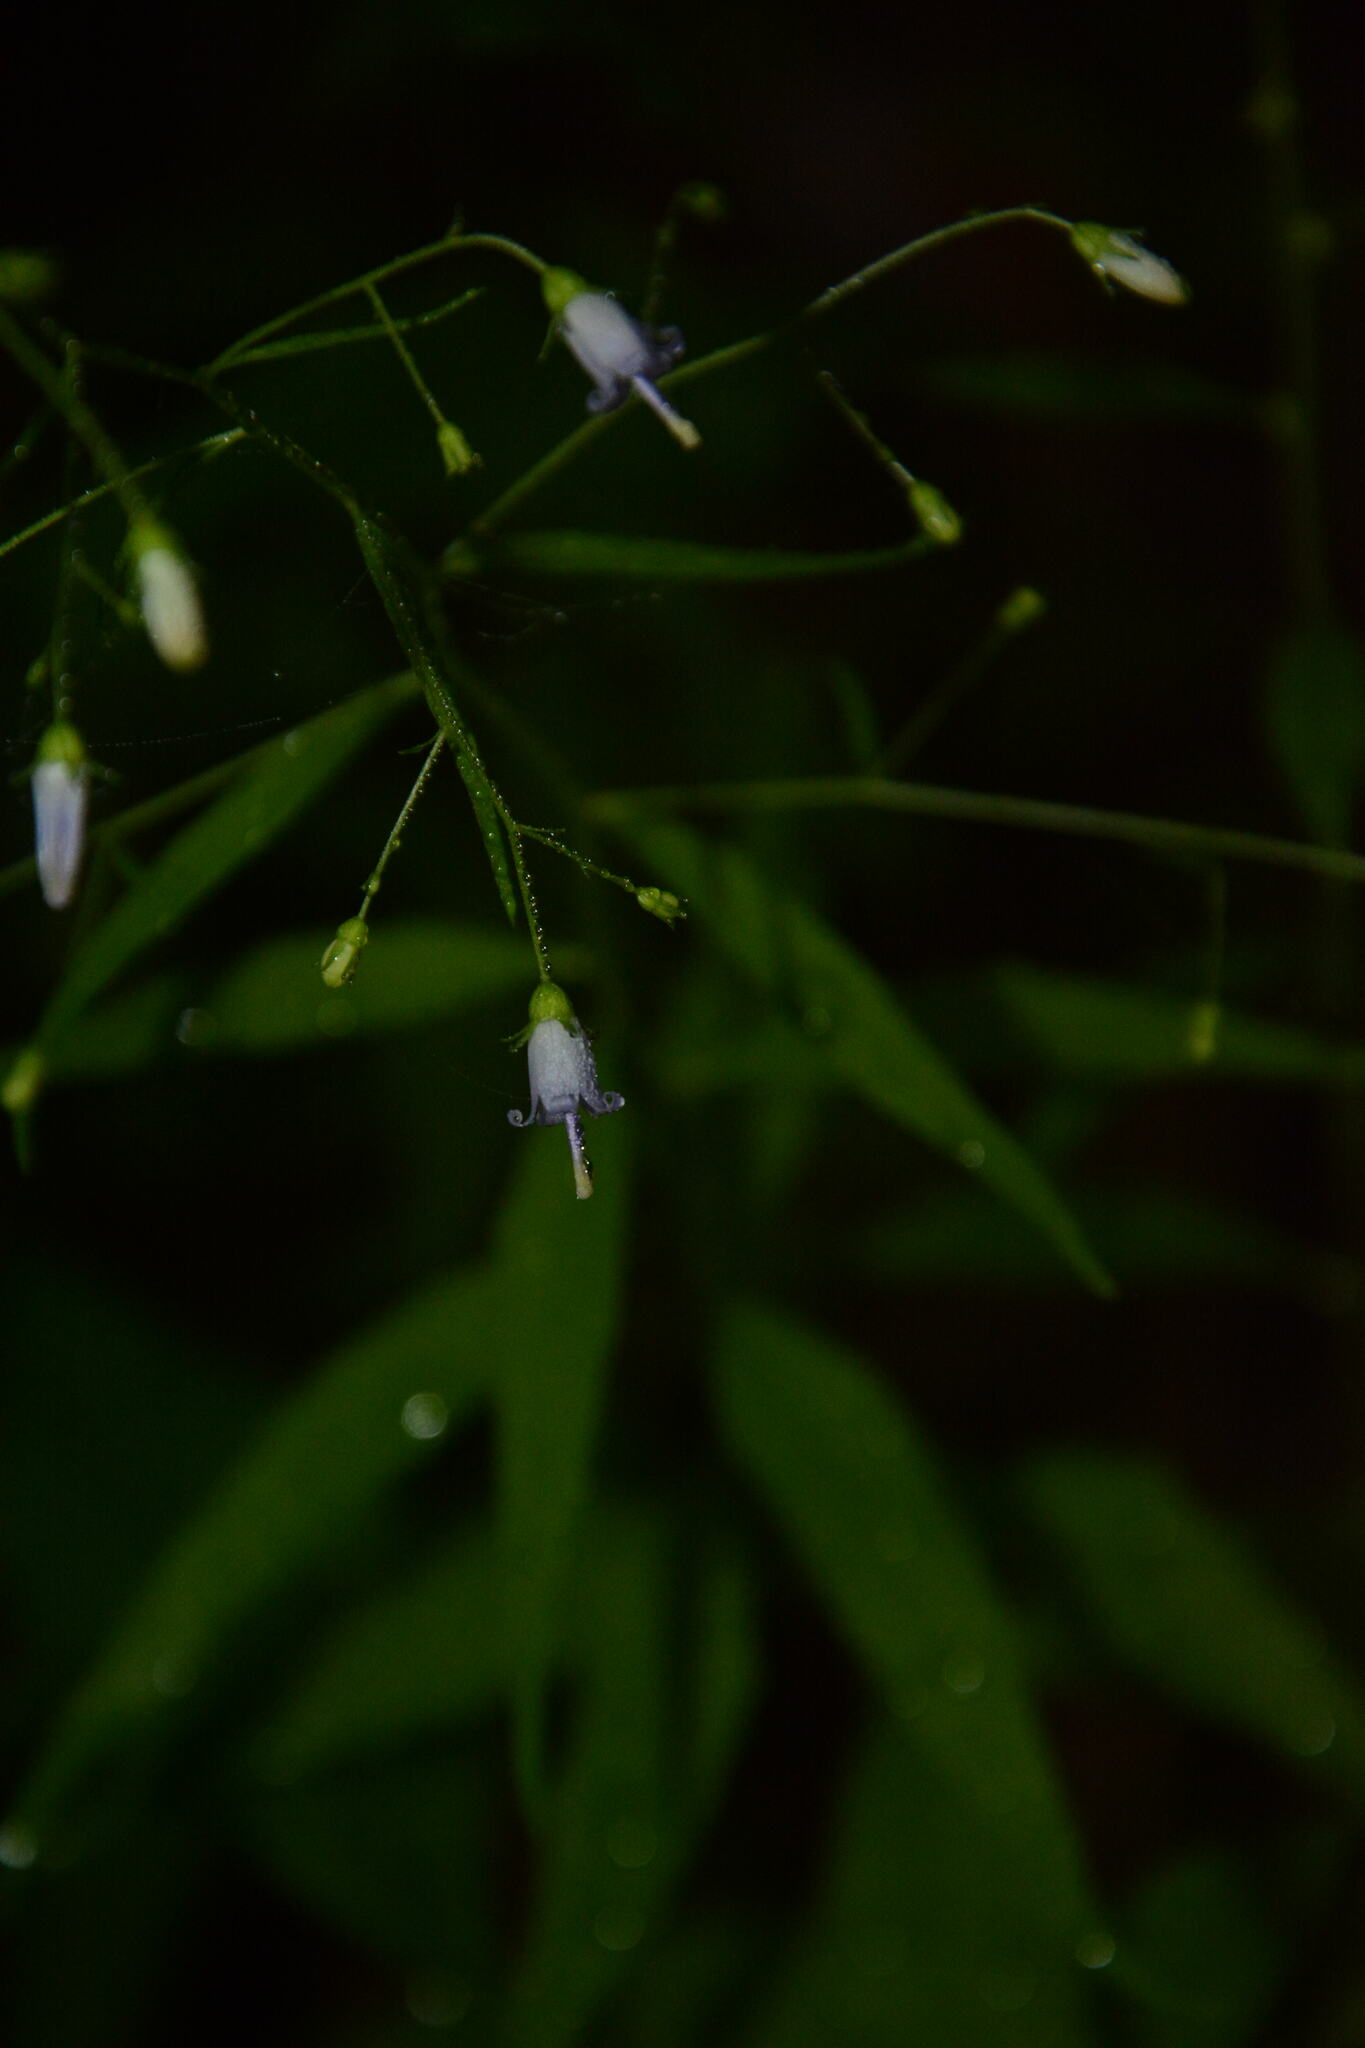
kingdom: Plantae
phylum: Tracheophyta
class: Magnoliopsida
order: Asterales
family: Campanulaceae
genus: Campanula
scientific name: Campanula divaricata
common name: Appalachian bellflower
